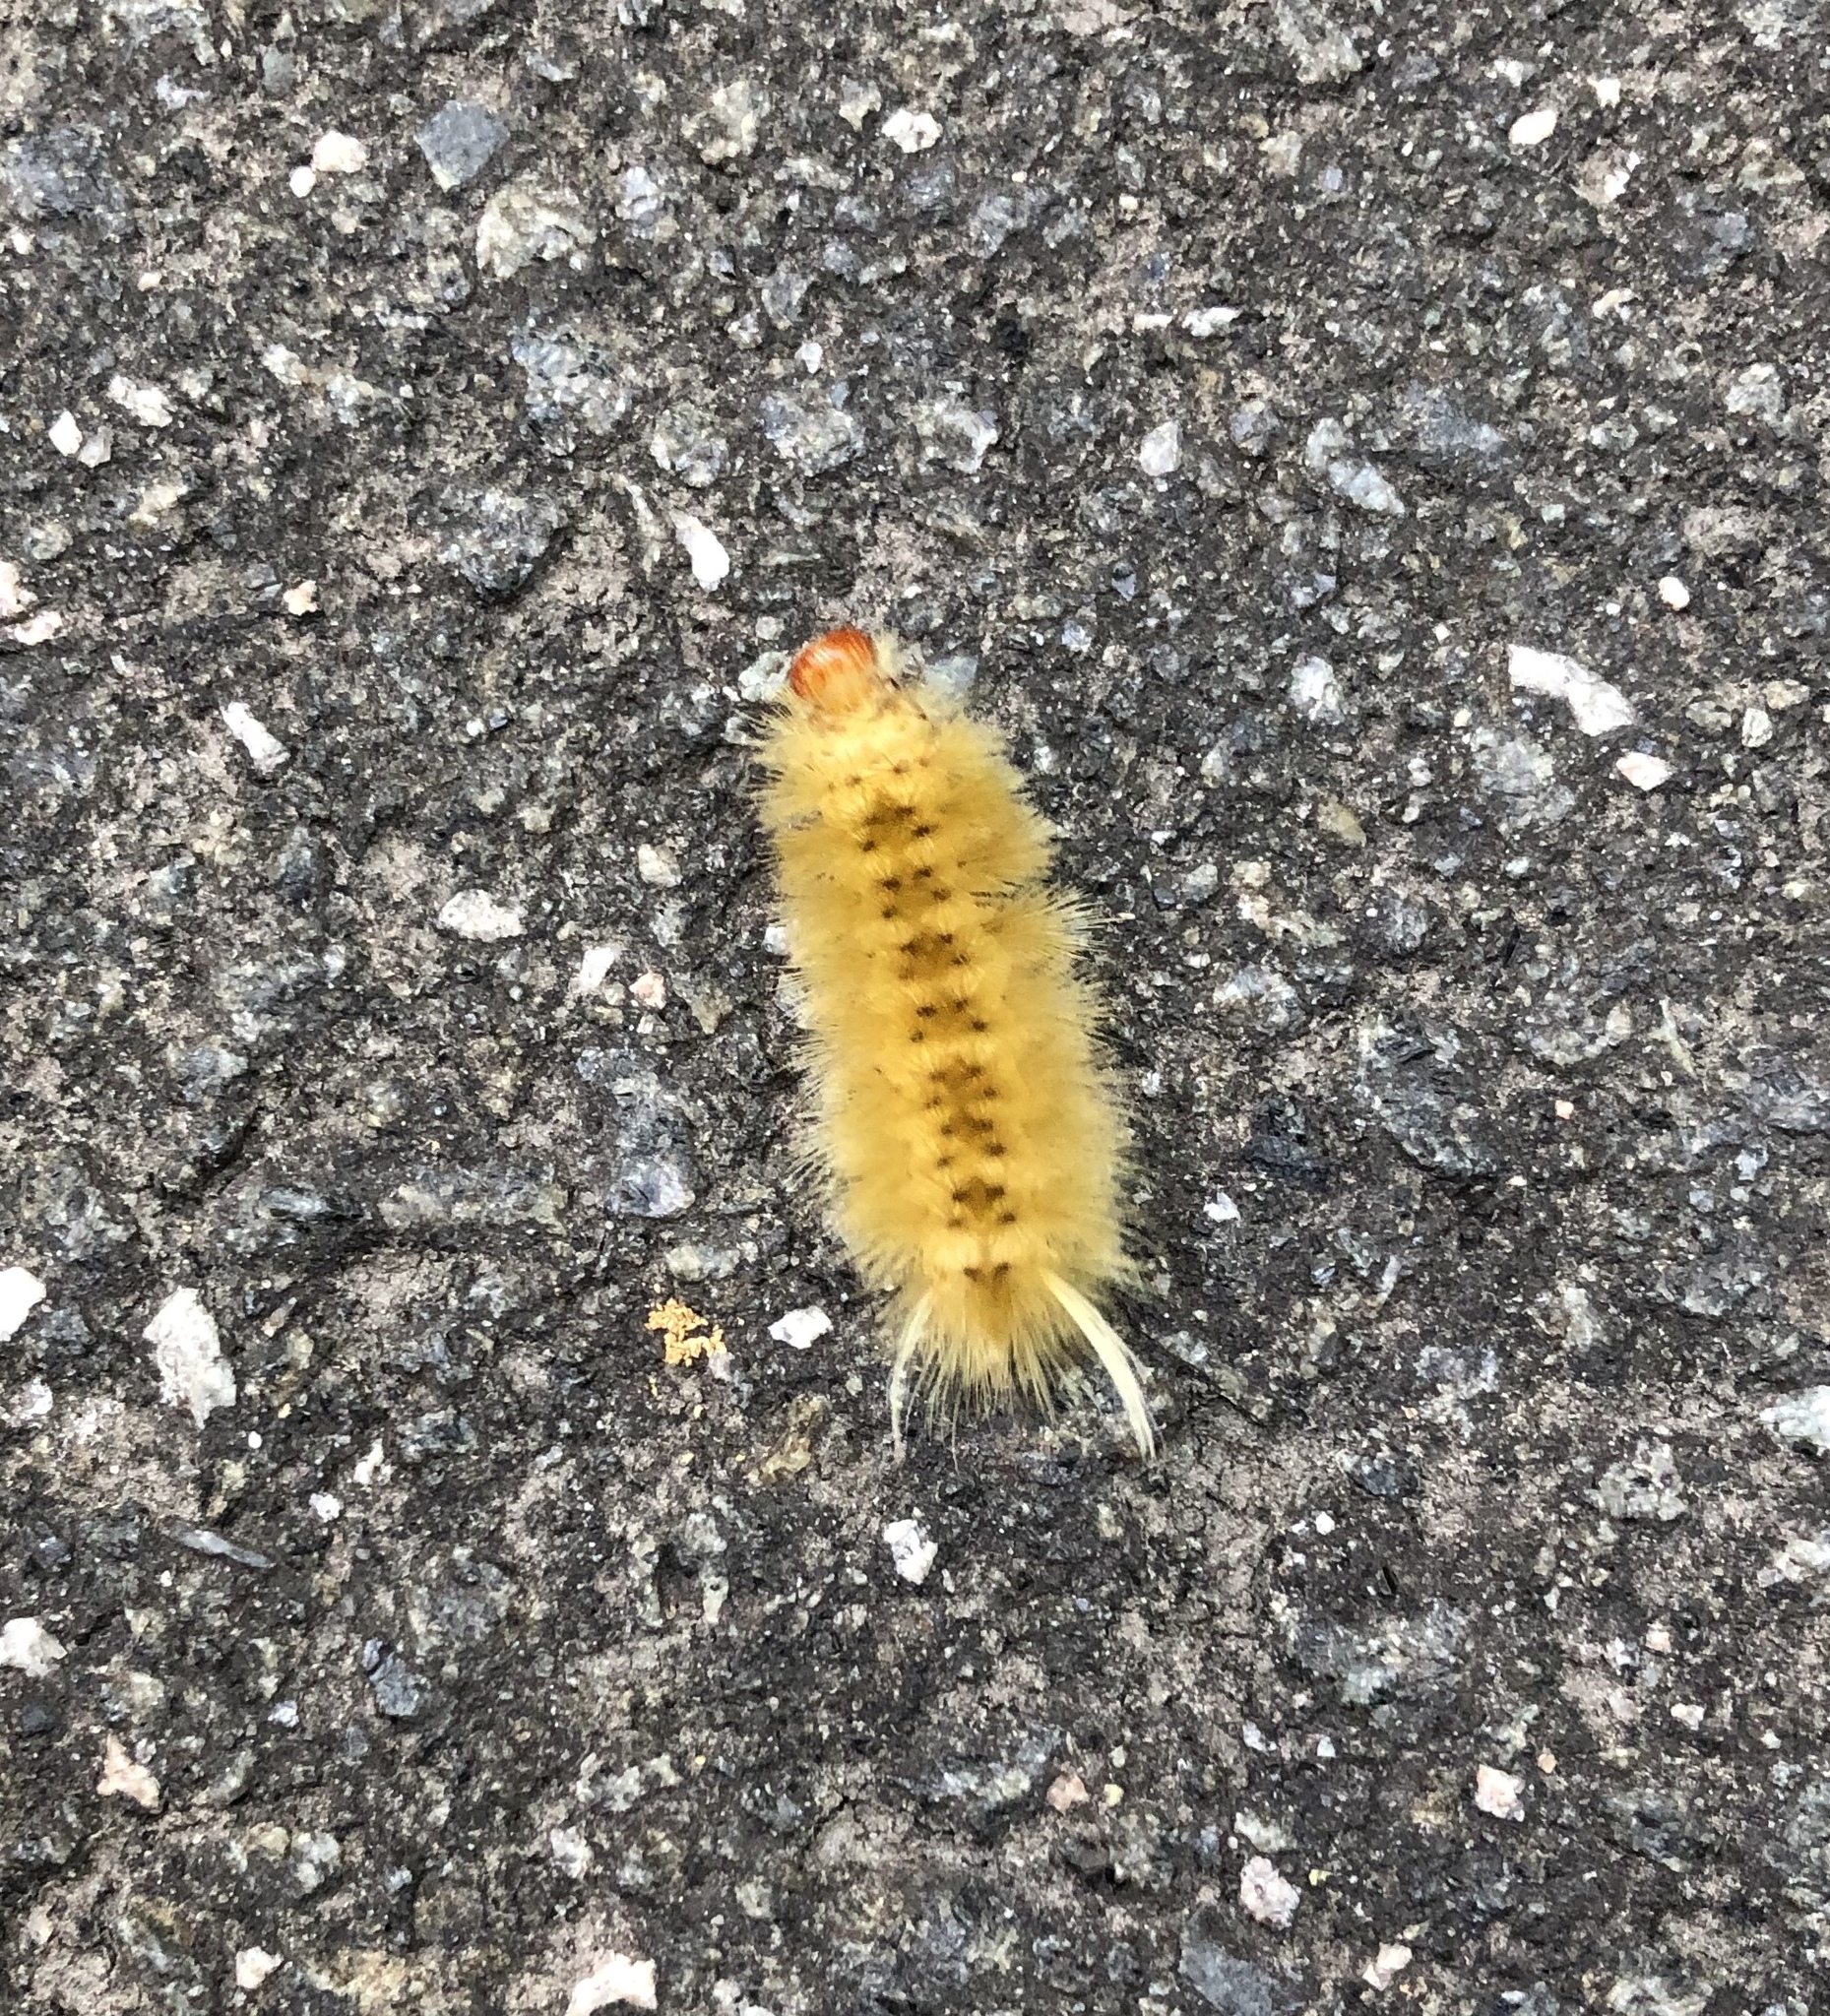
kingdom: Animalia
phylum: Arthropoda
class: Insecta
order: Lepidoptera
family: Erebidae
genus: Halysidota
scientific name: Halysidota harrisii
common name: Sycamore tussock moth
